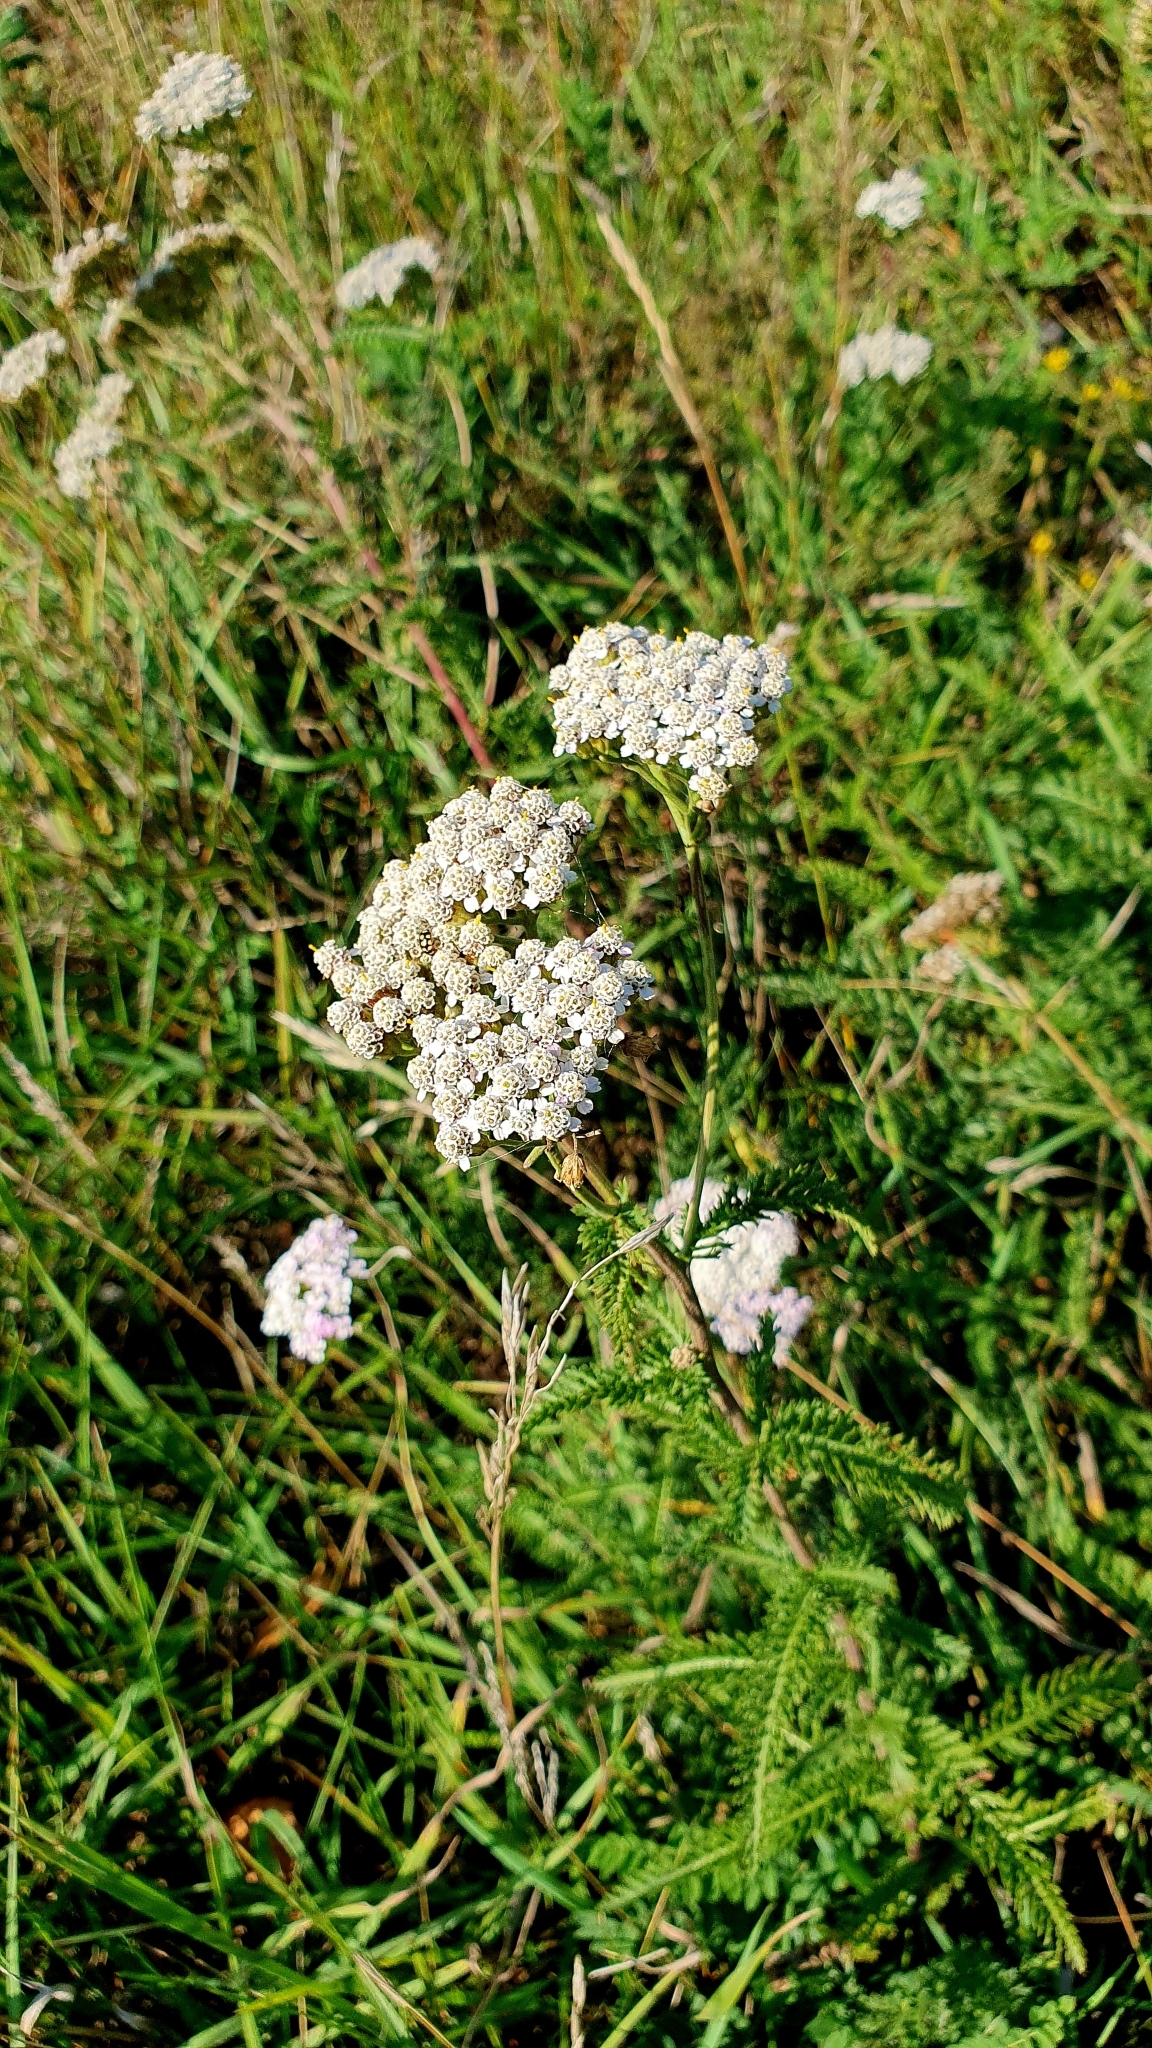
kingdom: Plantae
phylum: Tracheophyta
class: Magnoliopsida
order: Asterales
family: Asteraceae
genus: Achillea
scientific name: Achillea millefolium
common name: Yarrow
